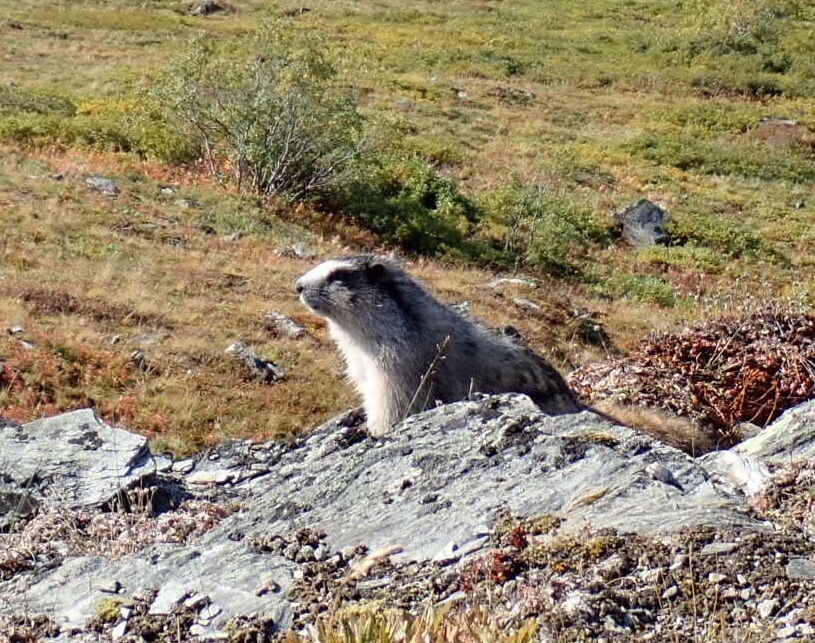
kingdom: Animalia
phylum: Chordata
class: Mammalia
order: Rodentia
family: Sciuridae
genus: Marmota
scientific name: Marmota caligata
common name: Hoary marmot
